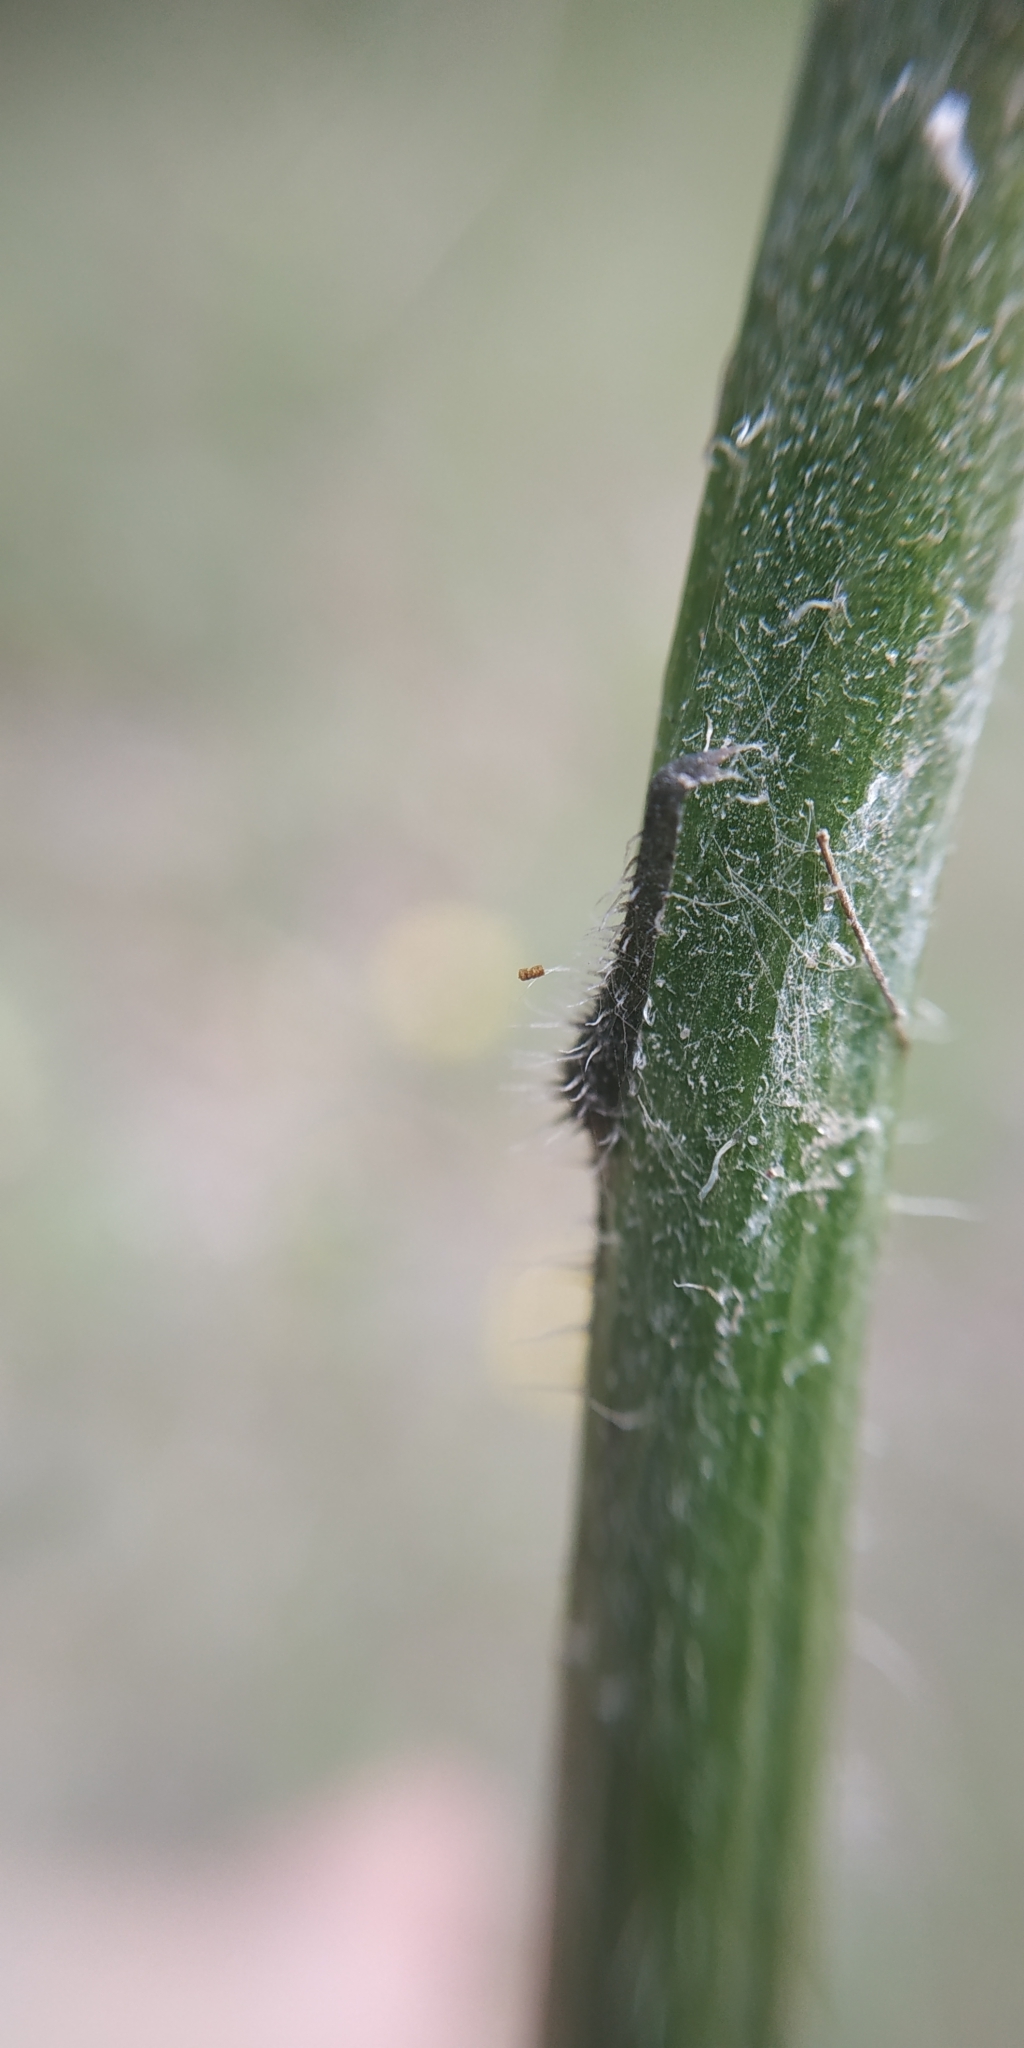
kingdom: Plantae
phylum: Tracheophyta
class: Magnoliopsida
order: Asterales
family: Asteraceae
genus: Trommsdorffia
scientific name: Trommsdorffia maculata
